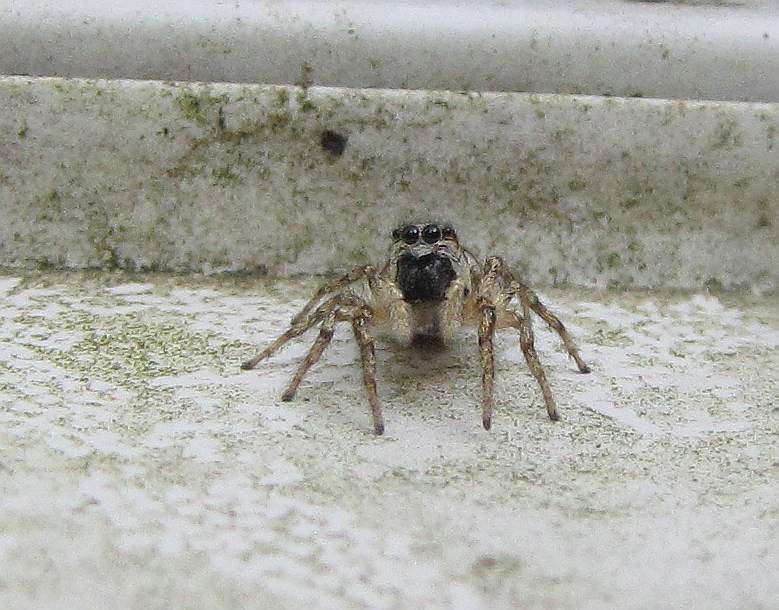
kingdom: Animalia
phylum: Arthropoda
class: Arachnida
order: Araneae
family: Salticidae
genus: Salticus
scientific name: Salticus scenicus
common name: Zebra jumper
